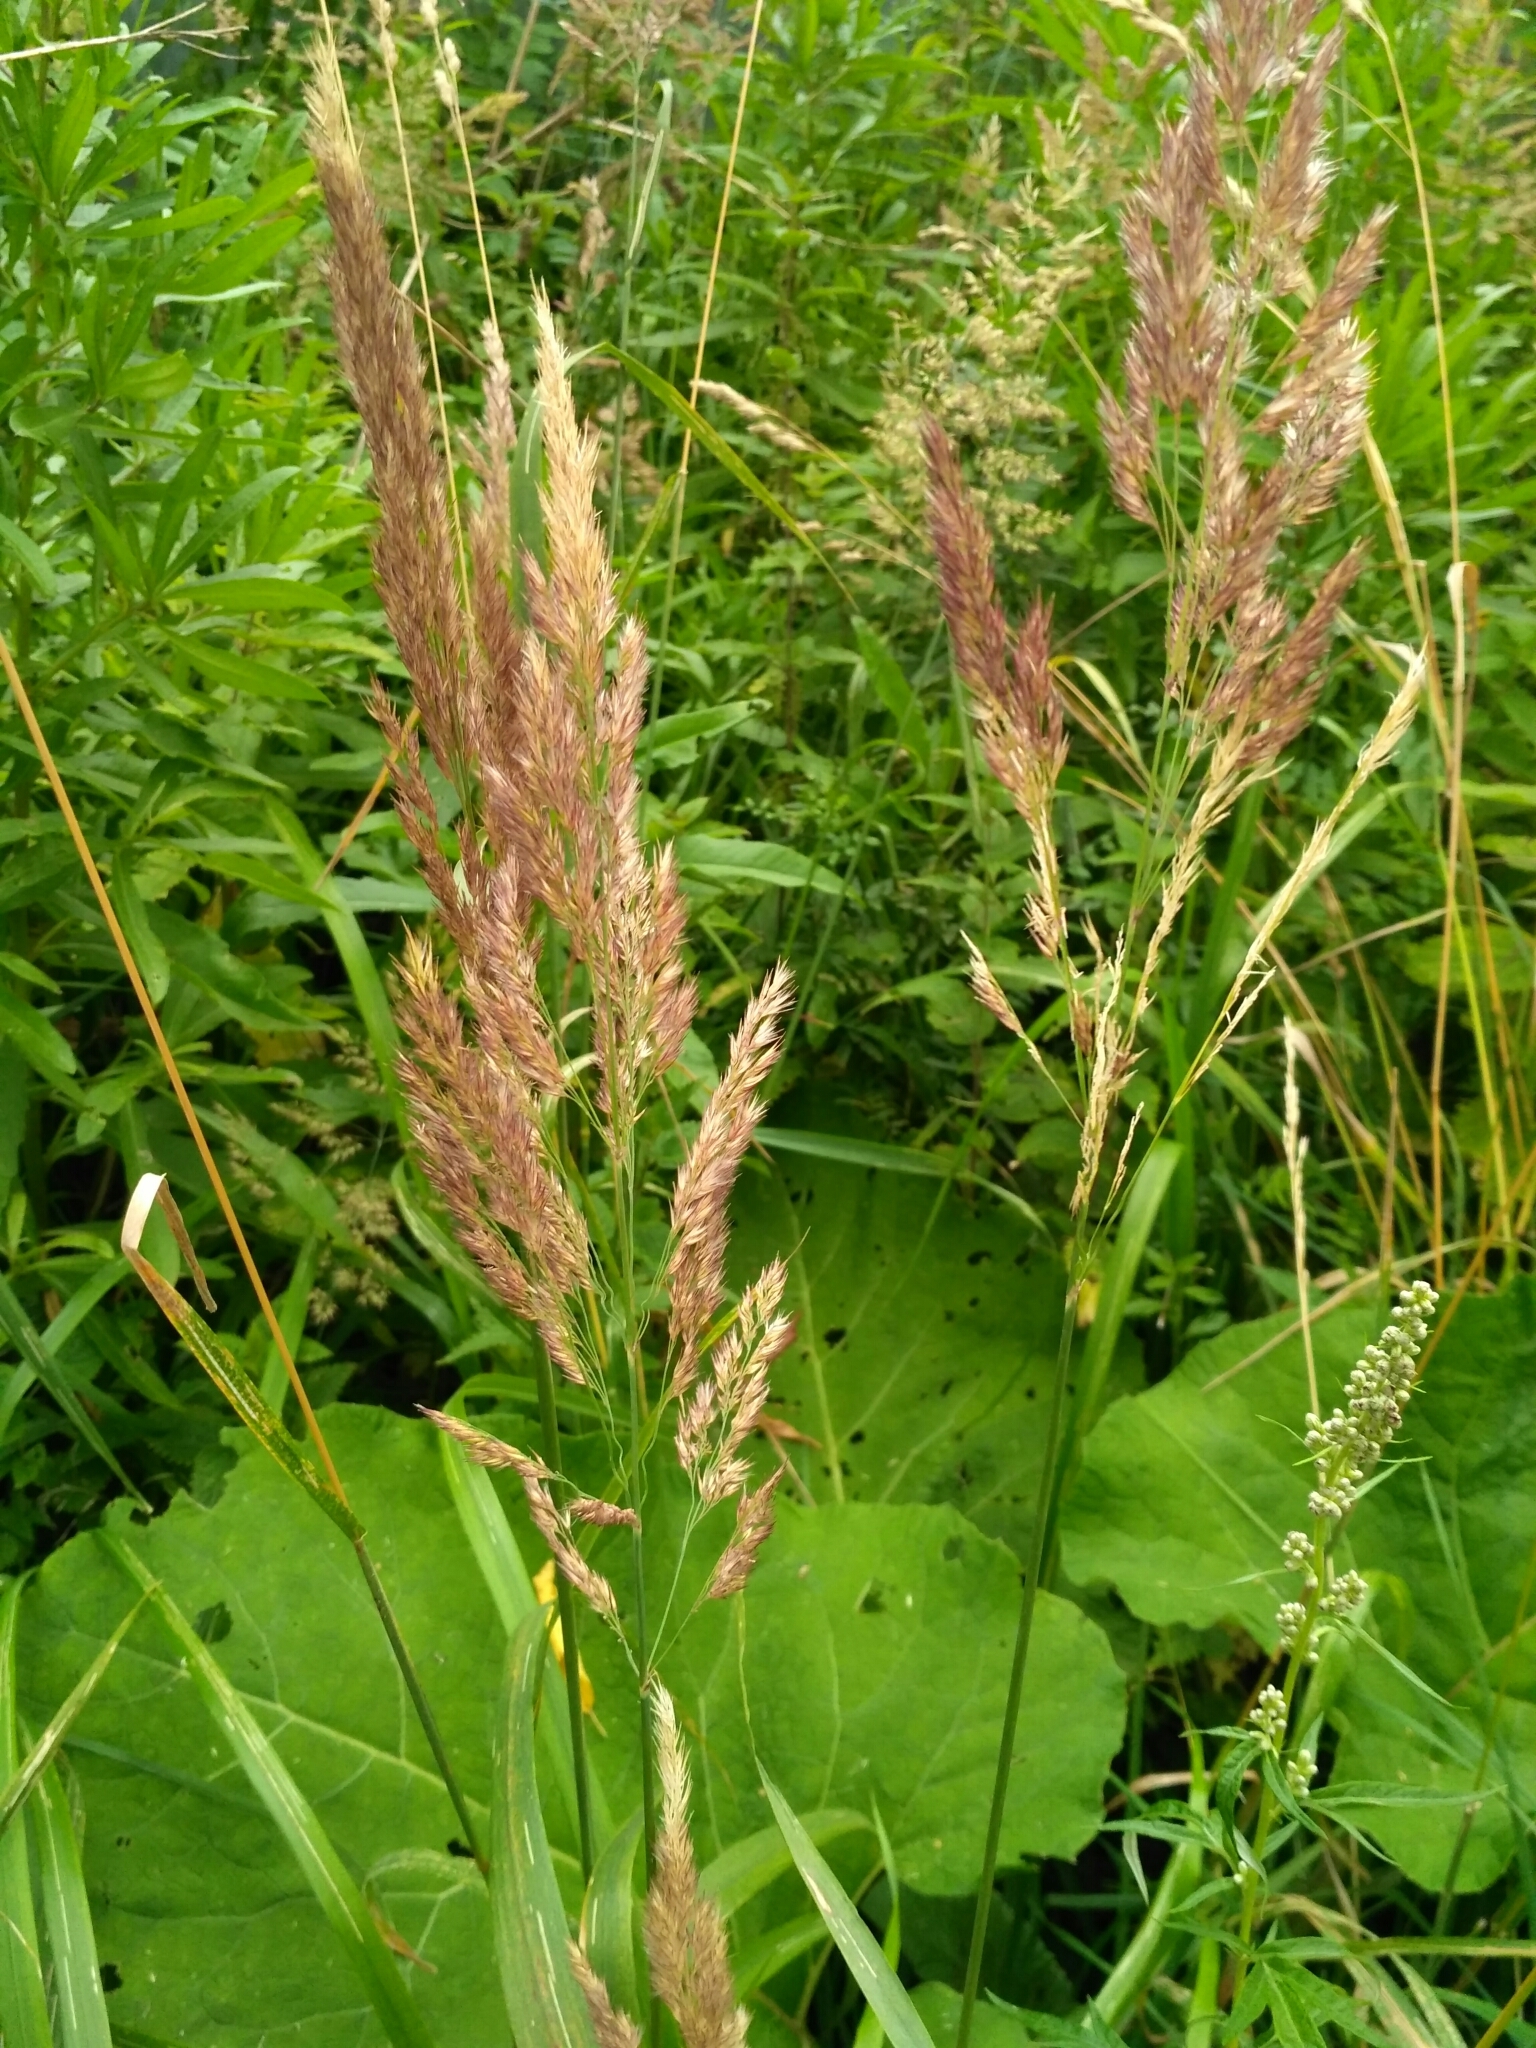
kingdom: Plantae
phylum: Tracheophyta
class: Liliopsida
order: Poales
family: Poaceae
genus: Calamagrostis
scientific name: Calamagrostis epigejos
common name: Wood small-reed
